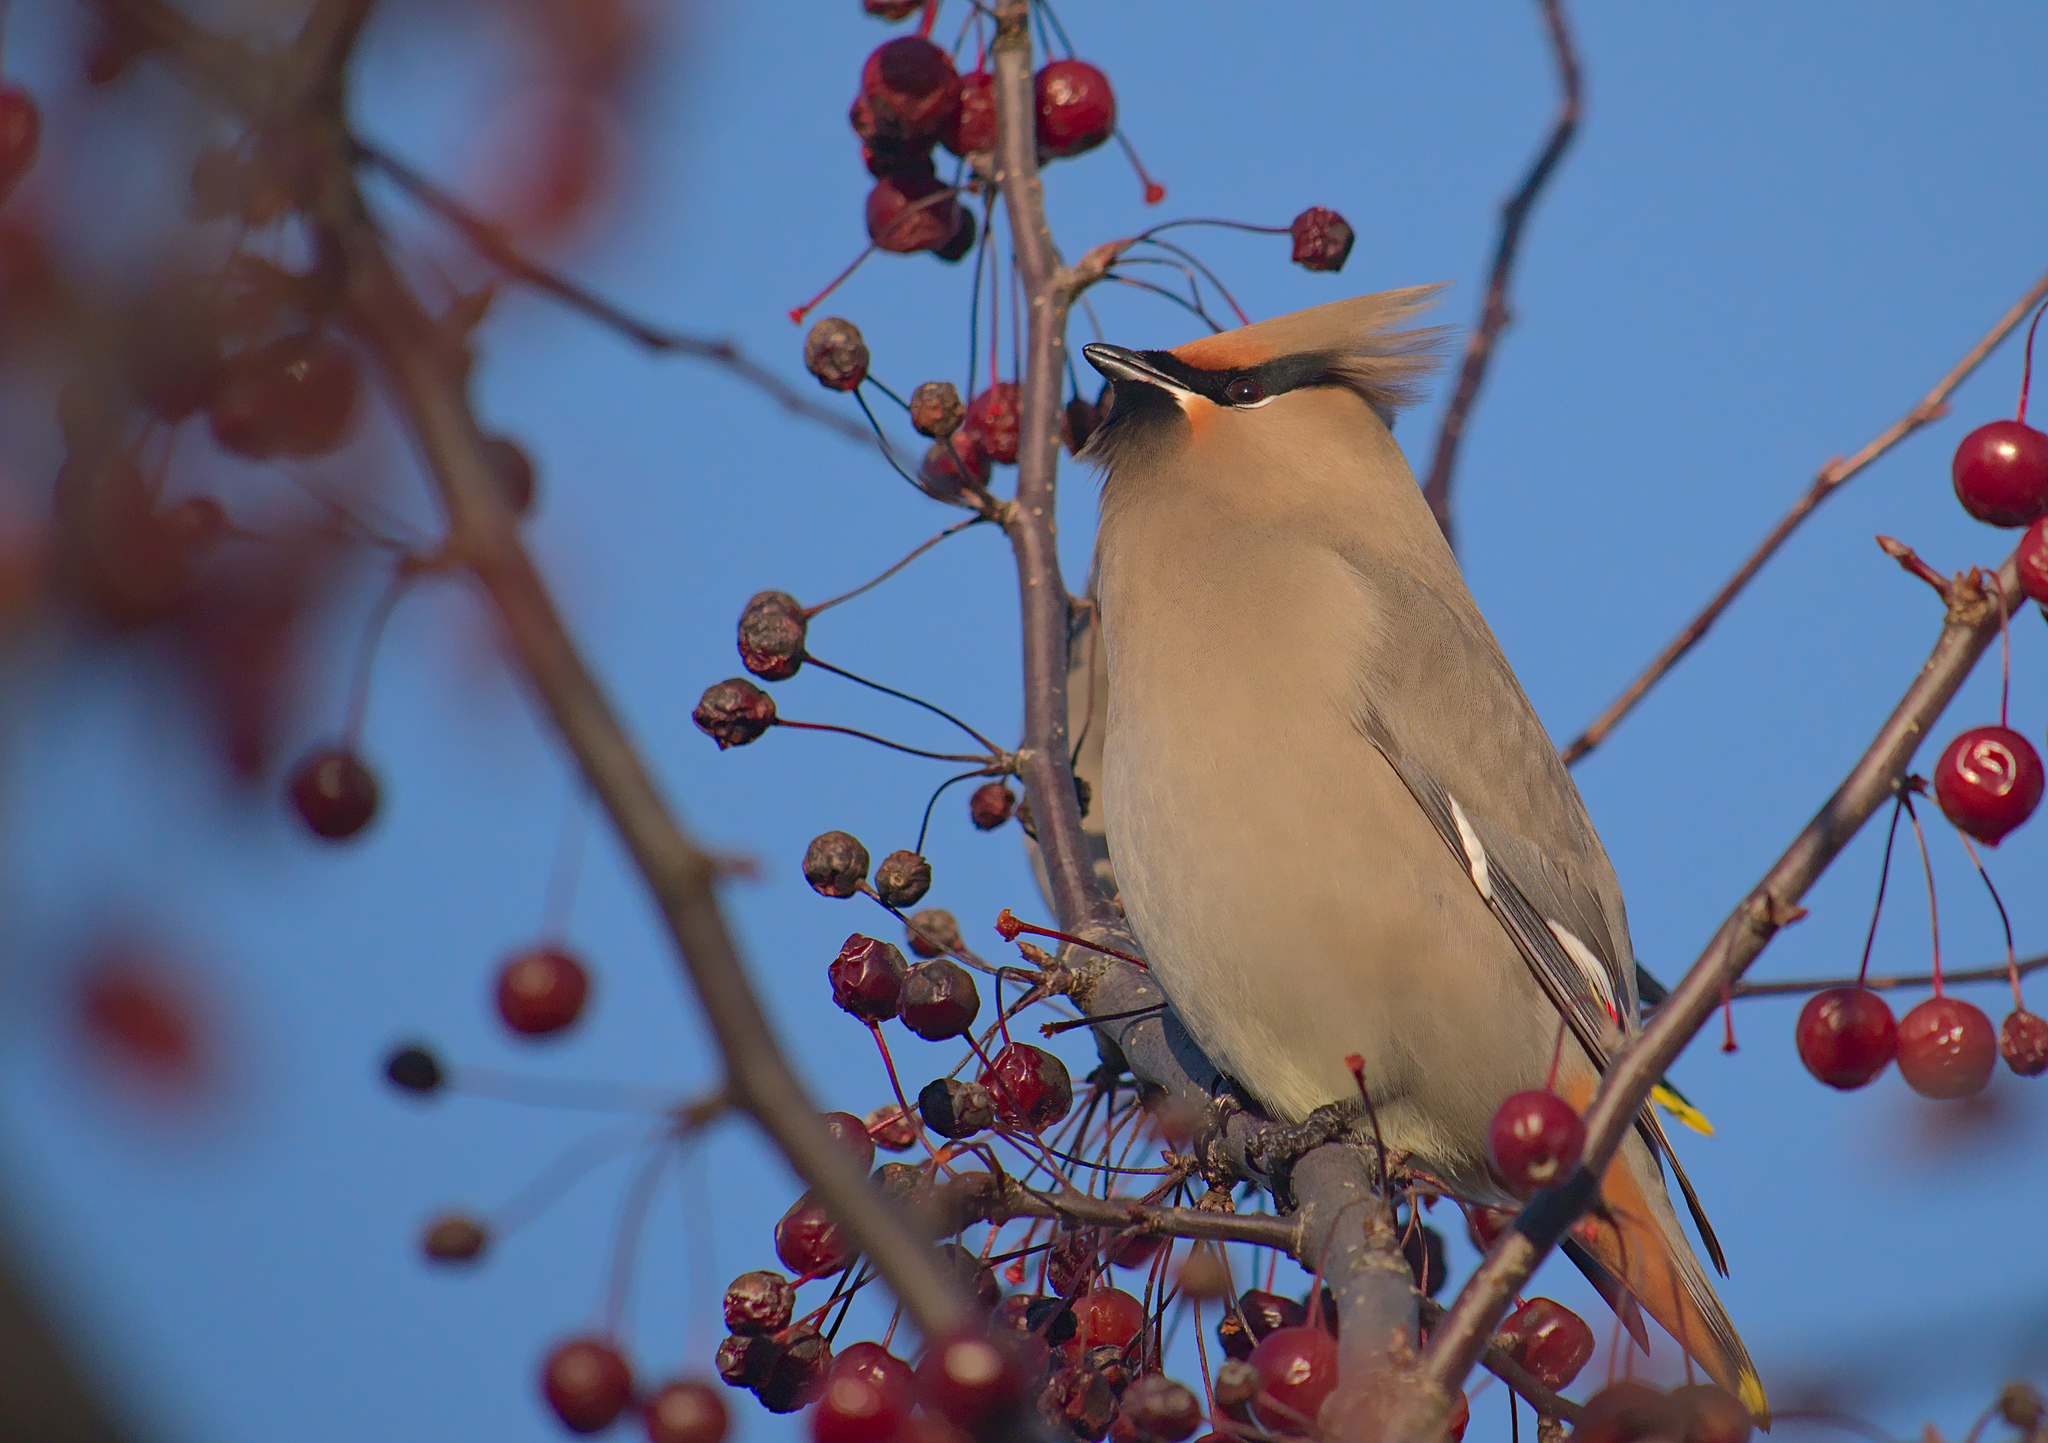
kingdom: Animalia
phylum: Chordata
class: Aves
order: Passeriformes
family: Bombycillidae
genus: Bombycilla
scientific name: Bombycilla garrulus
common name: Bohemian waxwing
